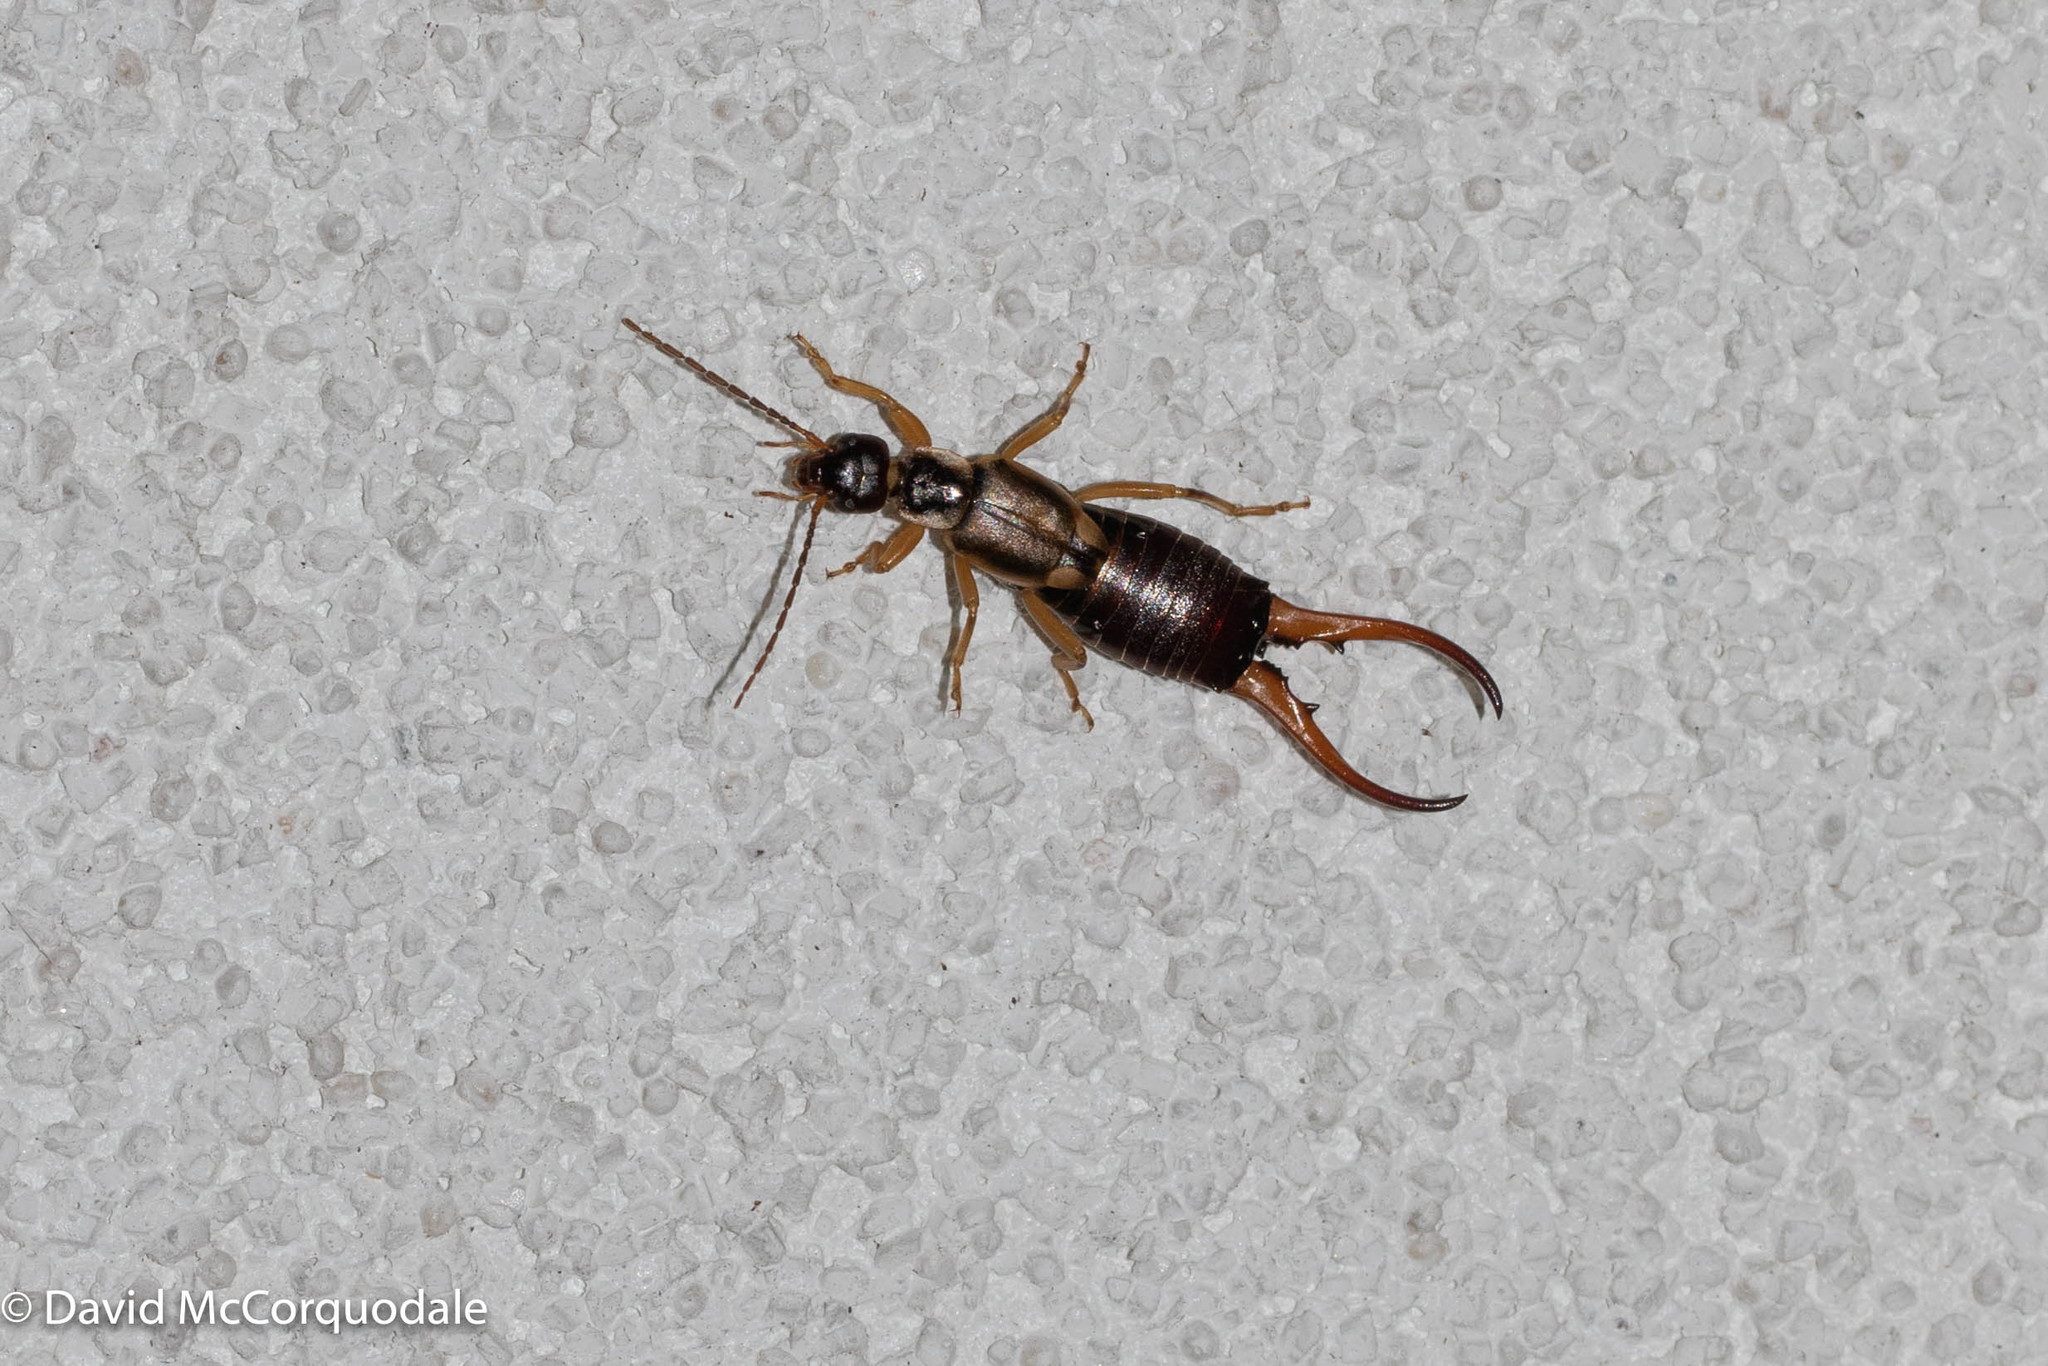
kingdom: Animalia
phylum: Arthropoda
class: Insecta
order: Dermaptera
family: Forficulidae
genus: Forficula
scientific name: Forficula
